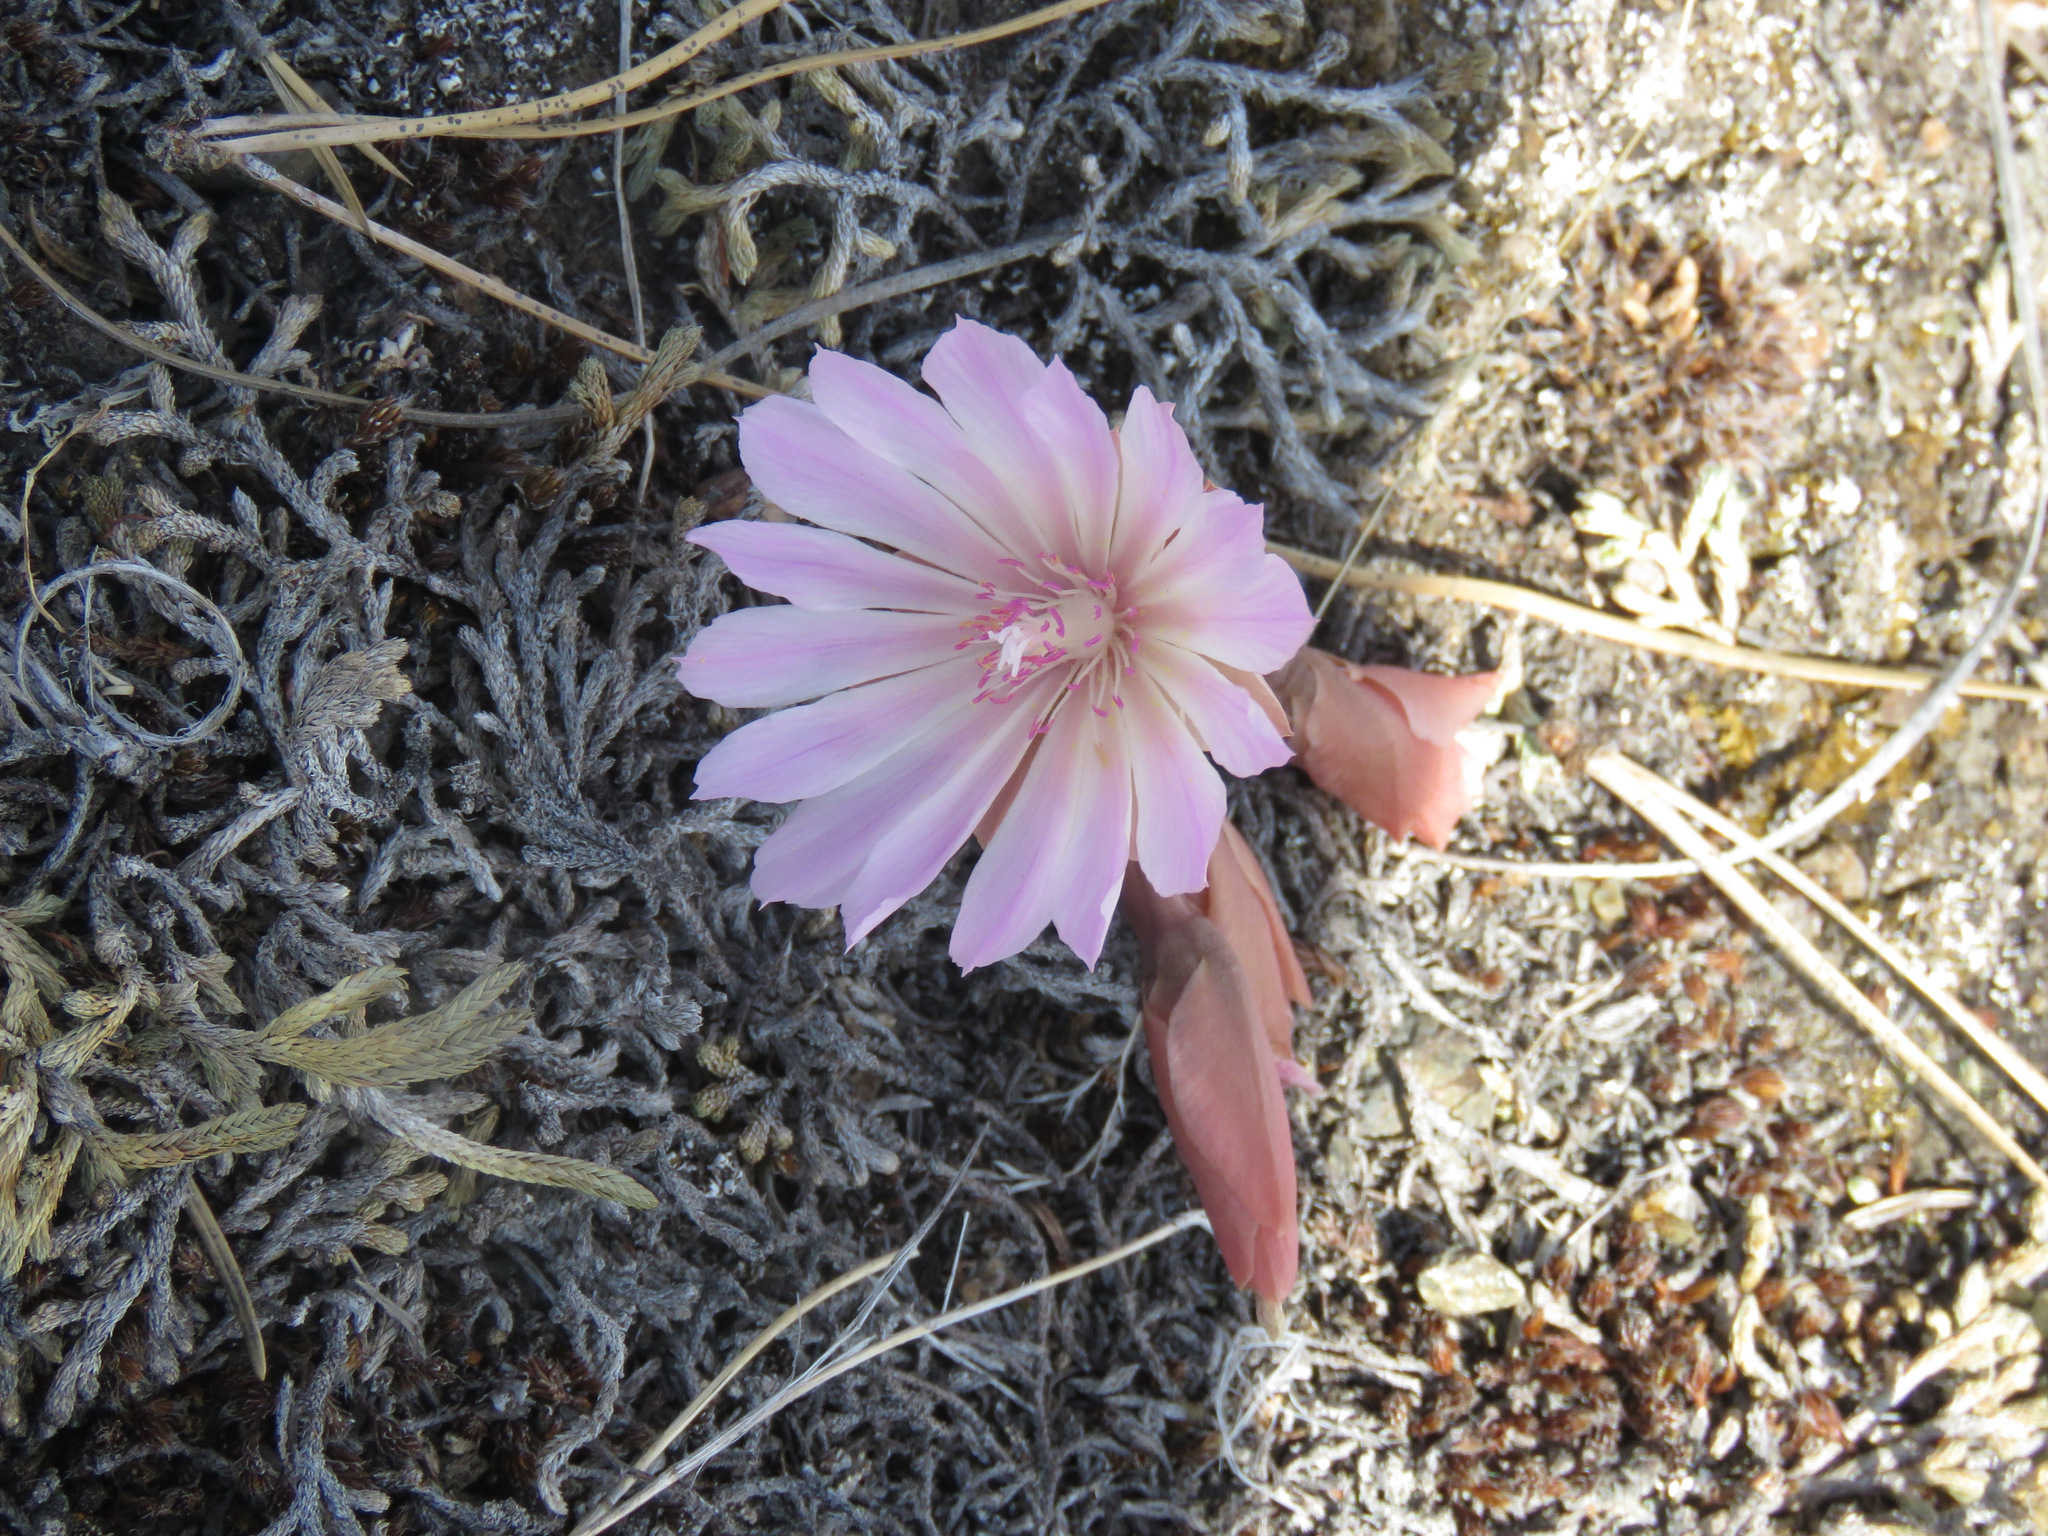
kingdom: Plantae
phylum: Tracheophyta
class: Magnoliopsida
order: Caryophyllales
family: Montiaceae
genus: Lewisia
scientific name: Lewisia rediviva
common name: Bitter-root
